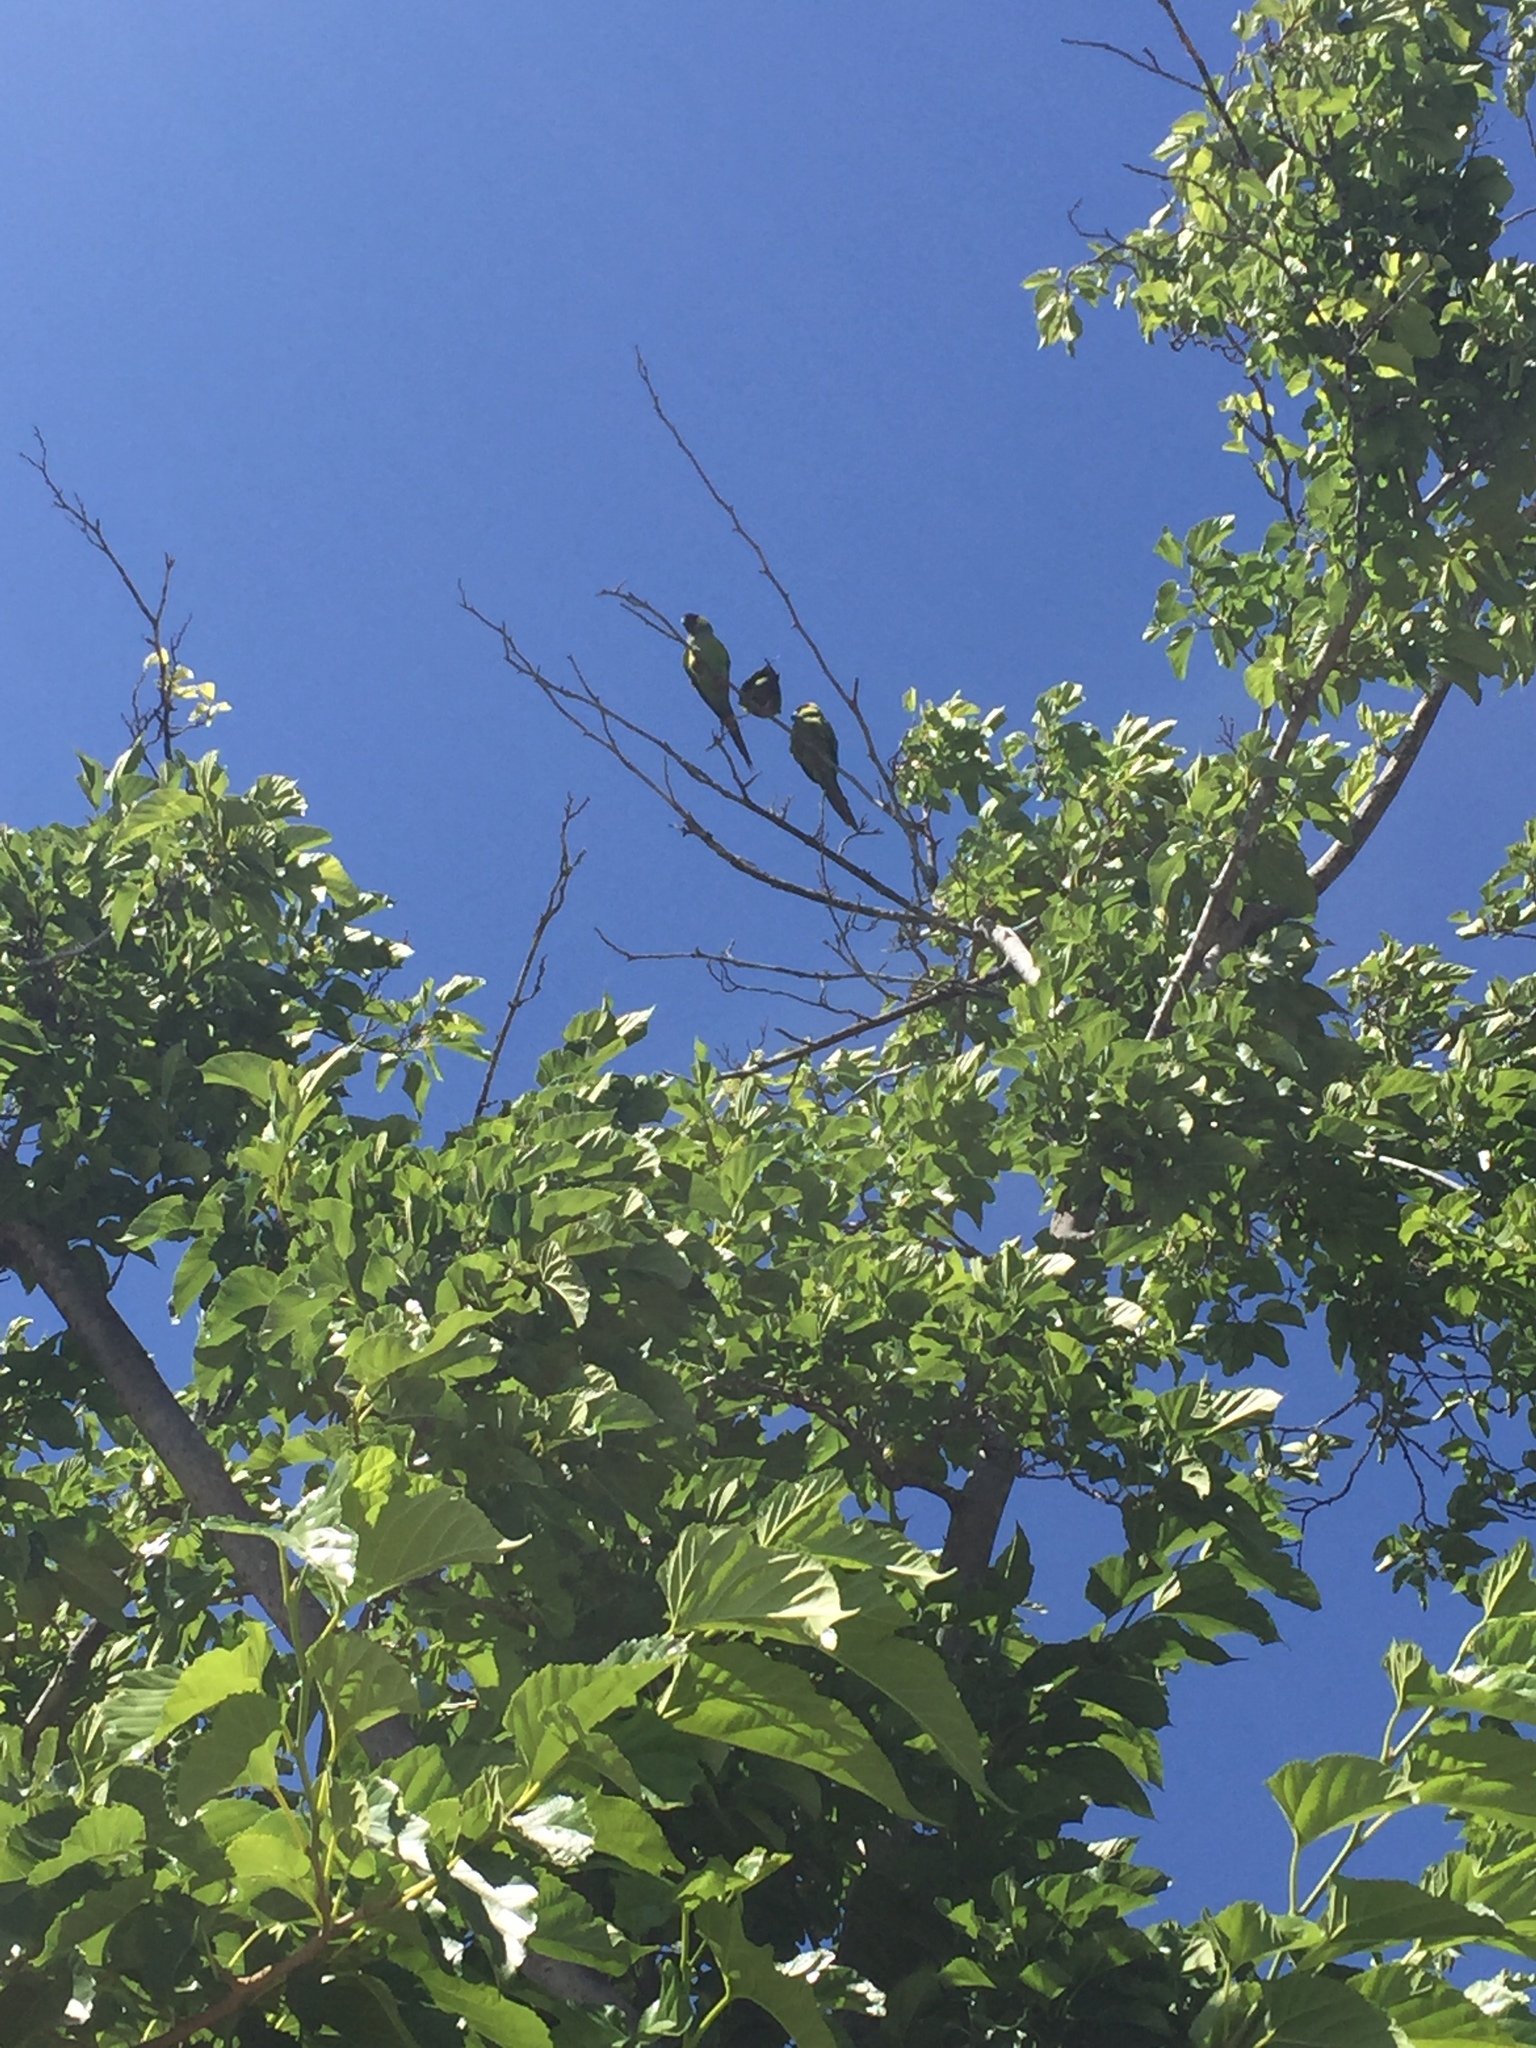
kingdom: Animalia
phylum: Chordata
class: Aves
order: Psittaciformes
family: Psittacidae
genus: Nandayus
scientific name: Nandayus nenday
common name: Nanday parakeet
